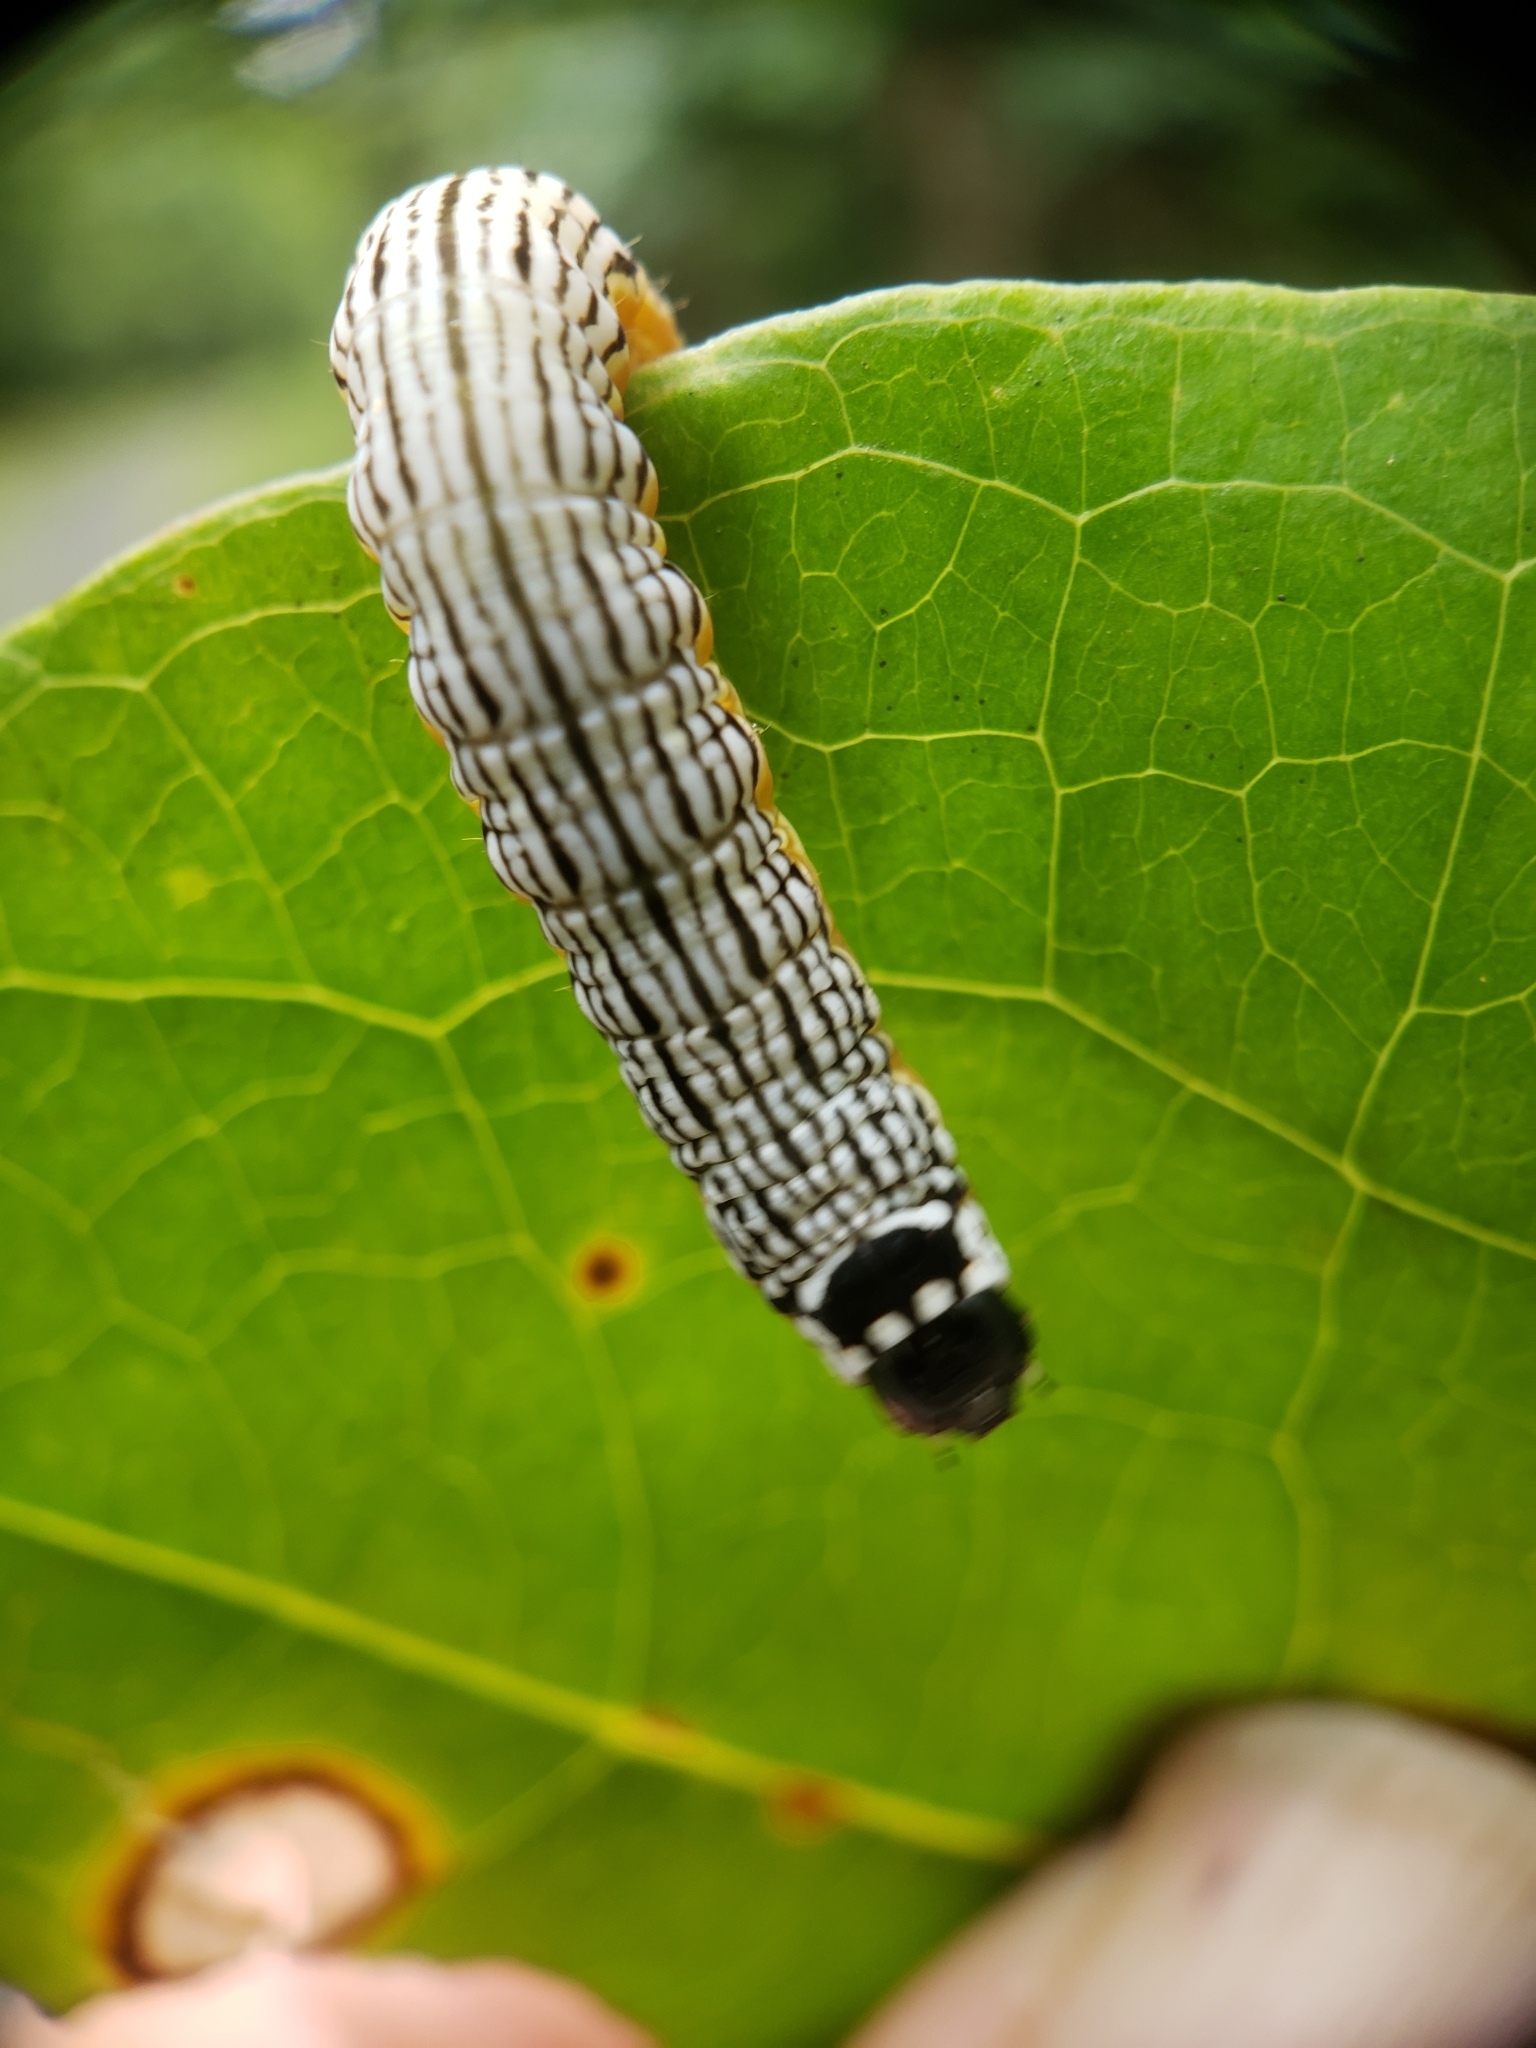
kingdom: Animalia
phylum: Arthropoda
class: Insecta
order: Lepidoptera
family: Noctuidae
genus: Phosphila
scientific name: Phosphila turbulenta
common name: Turbulent phosphila moth
